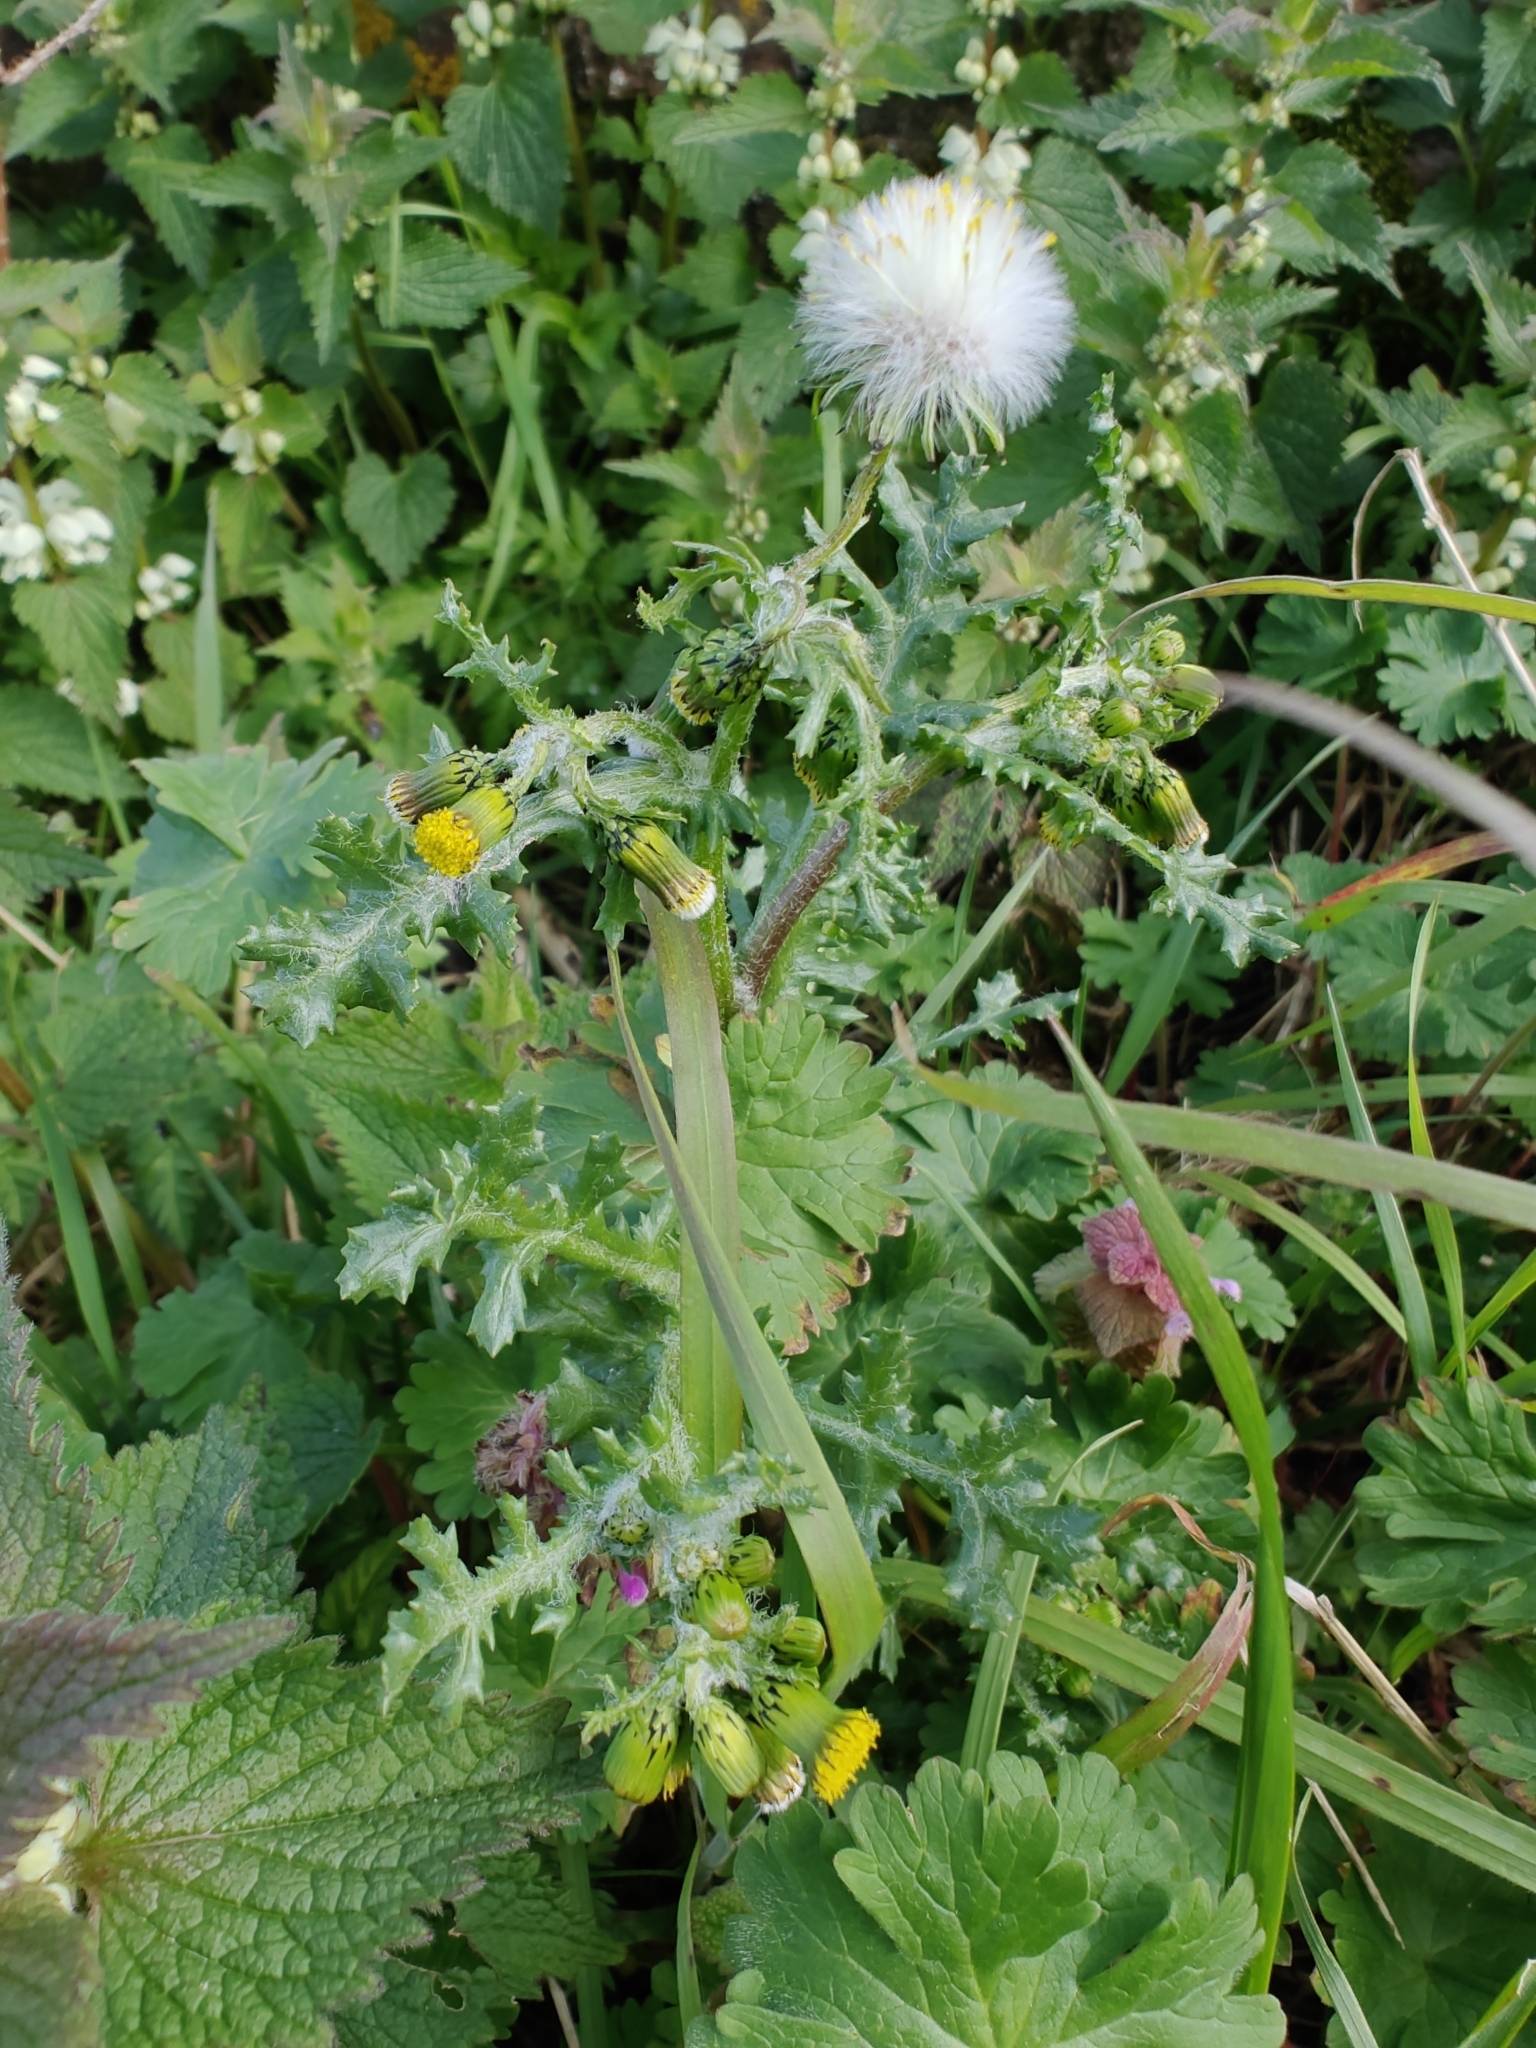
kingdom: Plantae
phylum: Tracheophyta
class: Magnoliopsida
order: Asterales
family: Asteraceae
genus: Senecio
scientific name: Senecio vulgaris
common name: Old-man-in-the-spring
